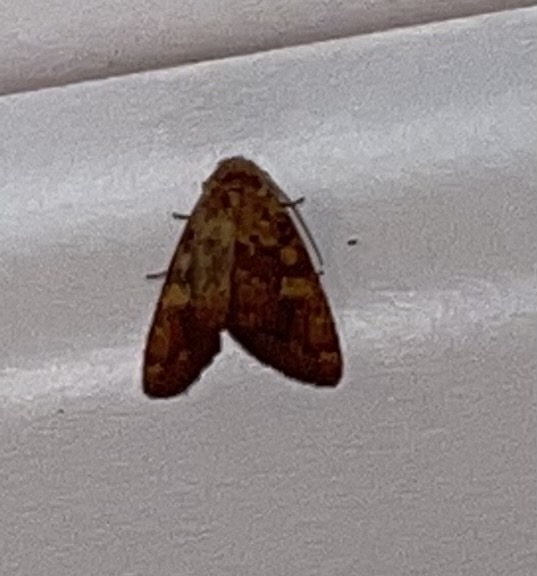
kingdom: Animalia
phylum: Arthropoda
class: Insecta
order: Lepidoptera
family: Noctuidae
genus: Perigea
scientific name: Perigea xanthioides
